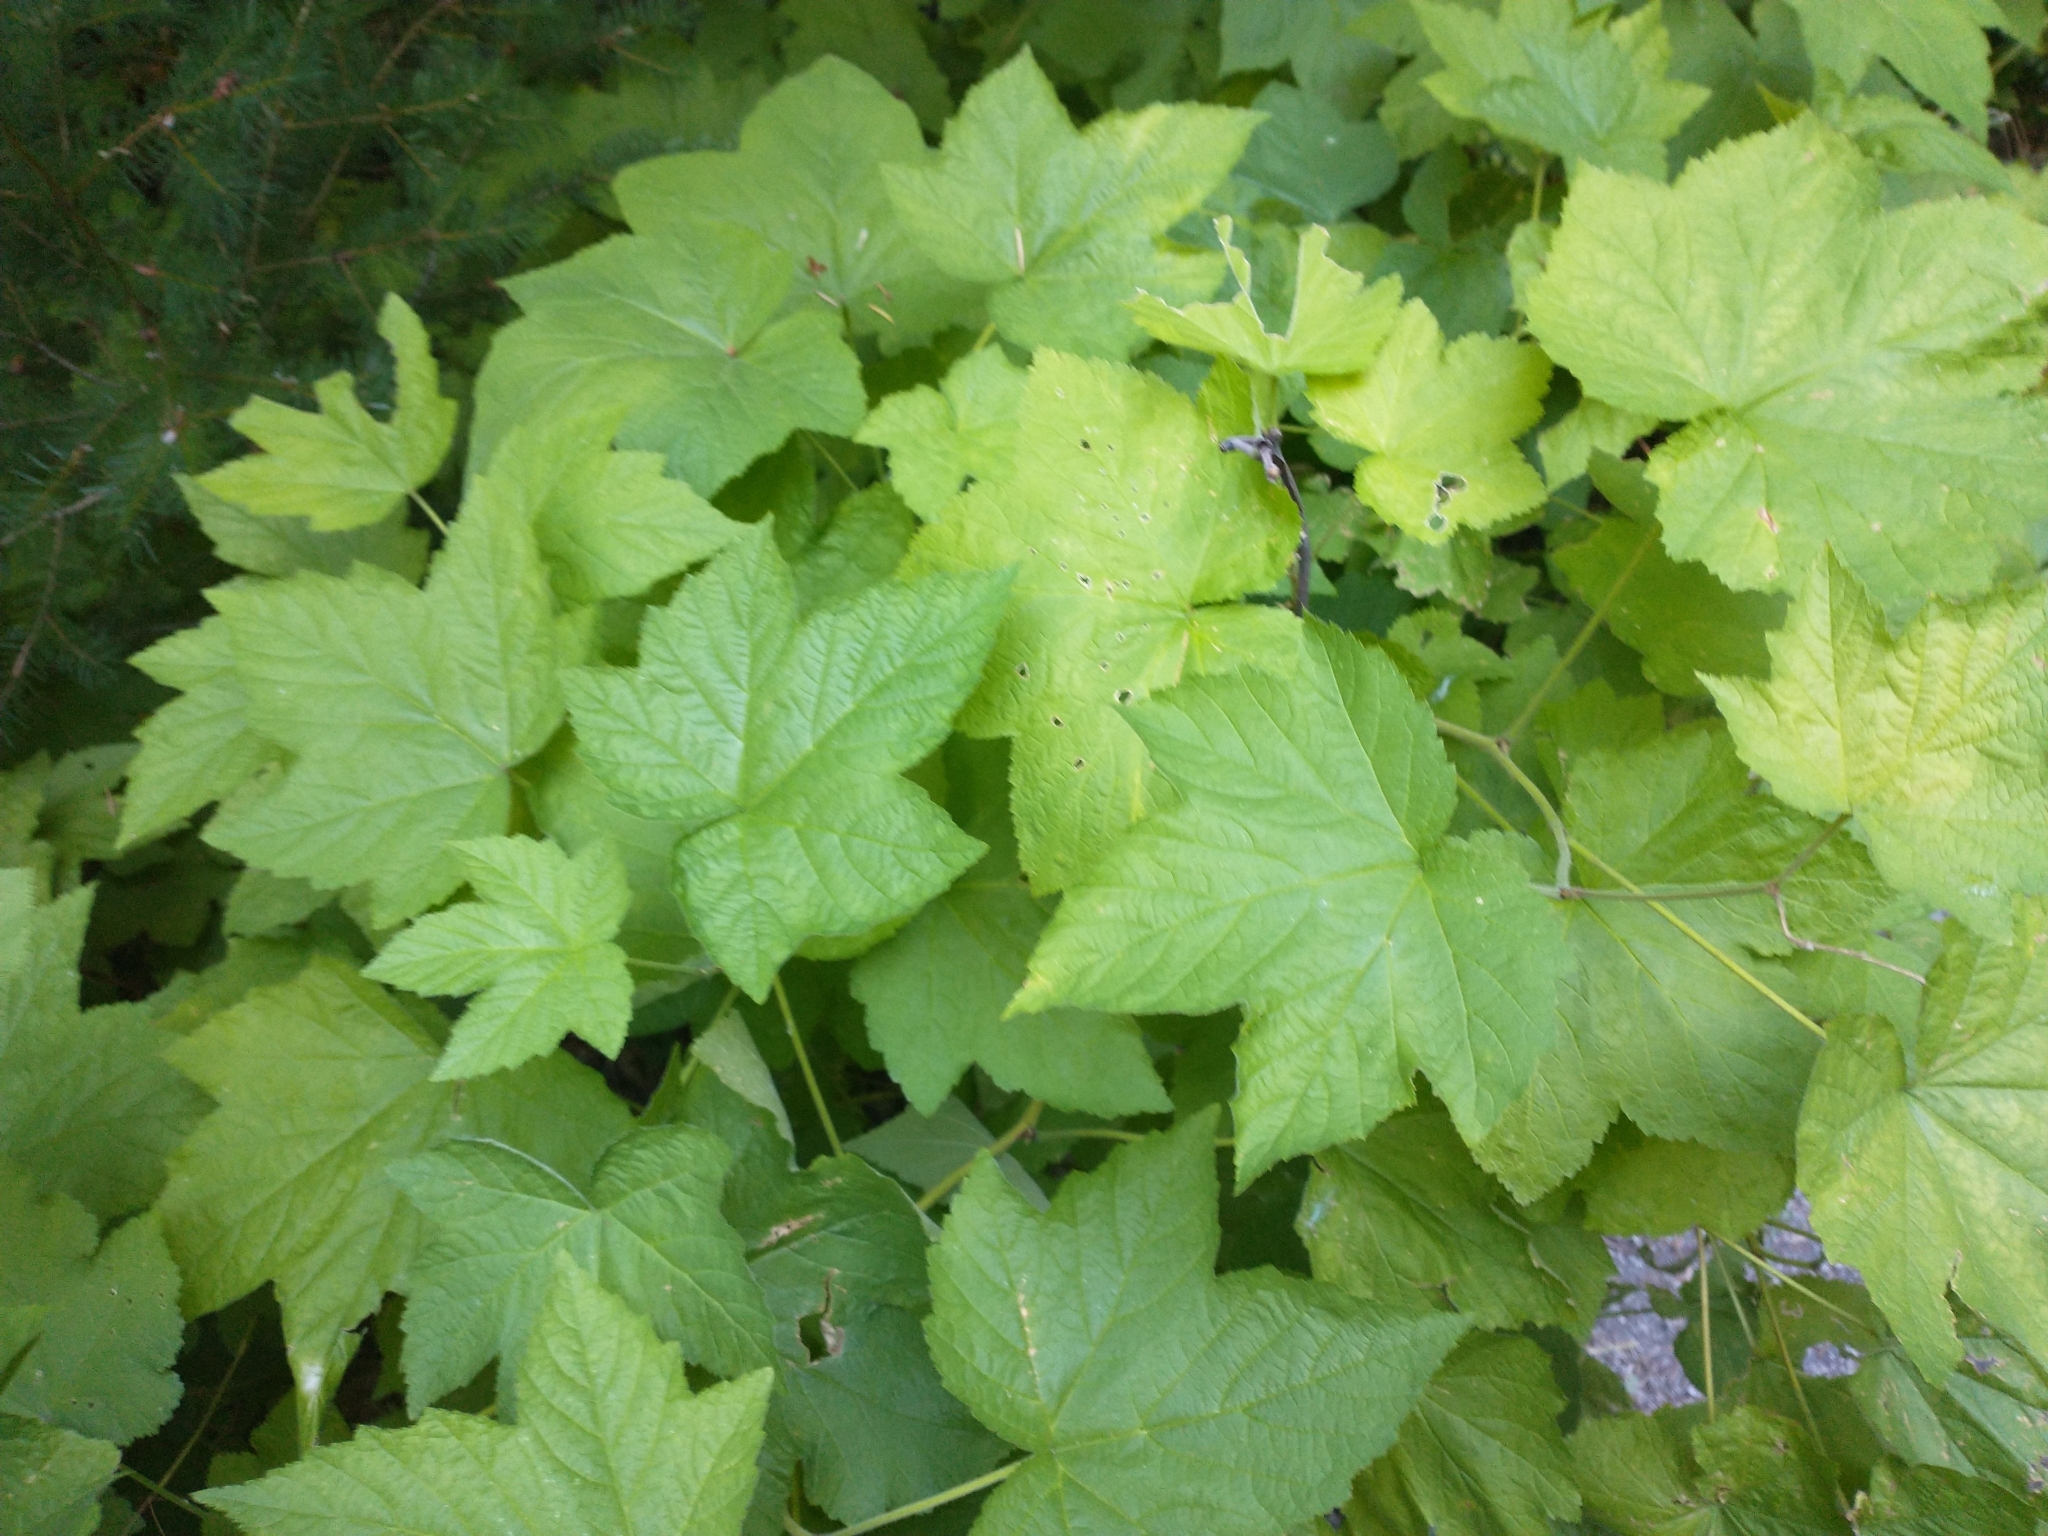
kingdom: Plantae
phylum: Tracheophyta
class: Magnoliopsida
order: Rosales
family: Rosaceae
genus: Rubus
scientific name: Rubus parviflorus
